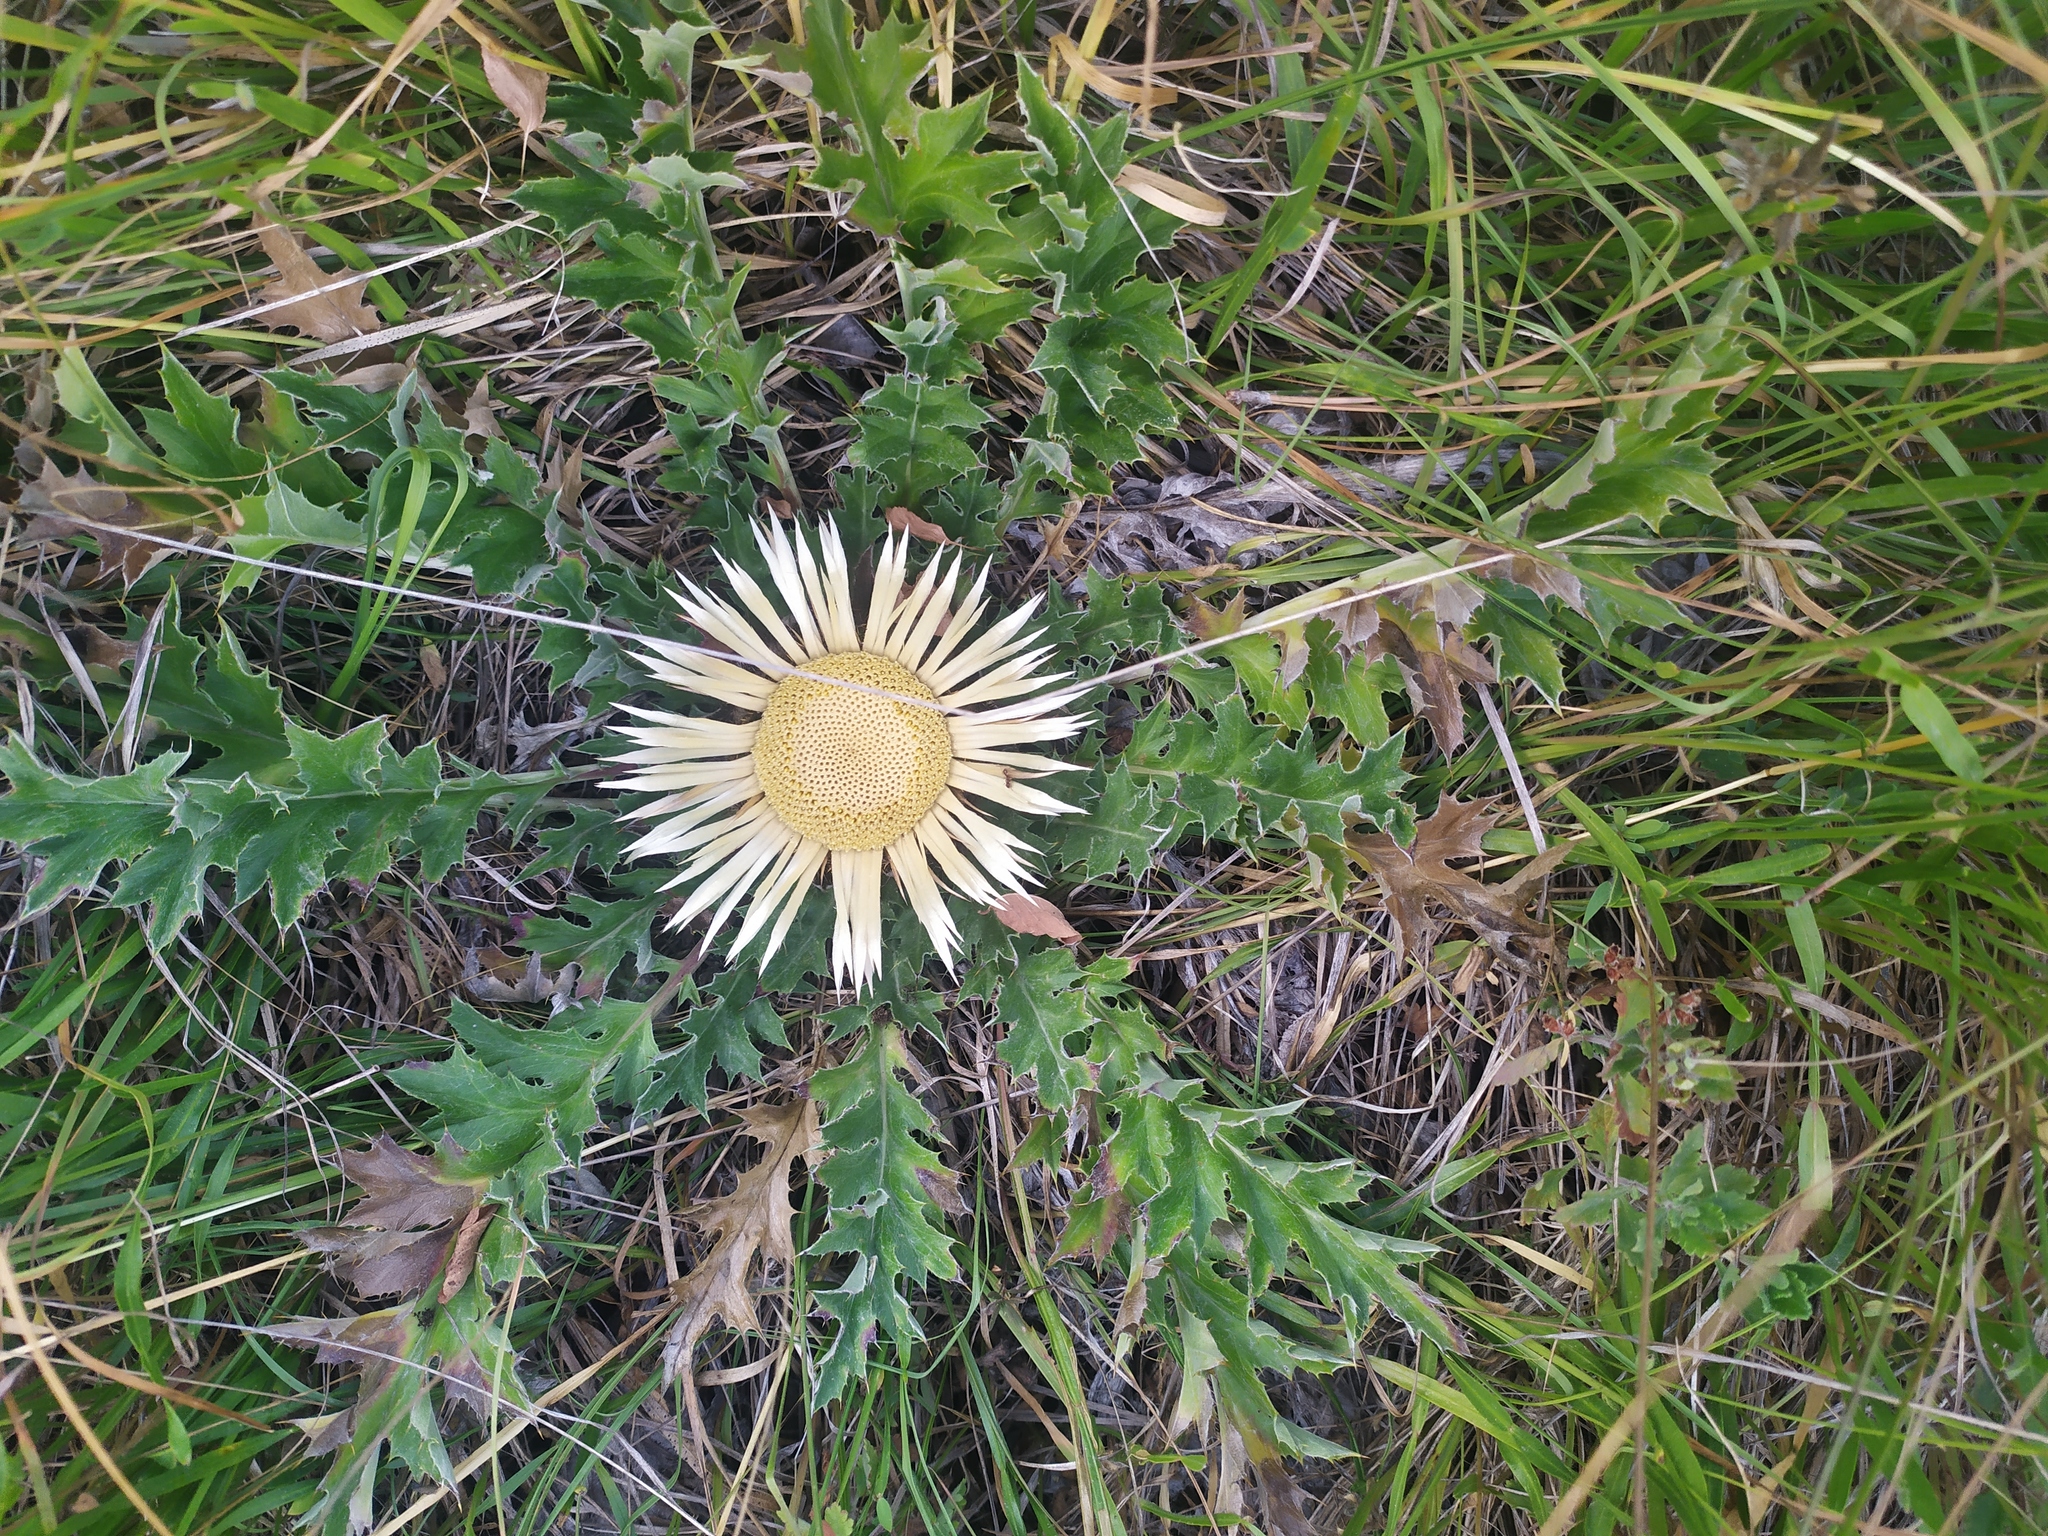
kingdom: Plantae
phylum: Tracheophyta
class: Magnoliopsida
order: Asterales
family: Asteraceae
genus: Carlina
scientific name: Carlina acanthifolia
